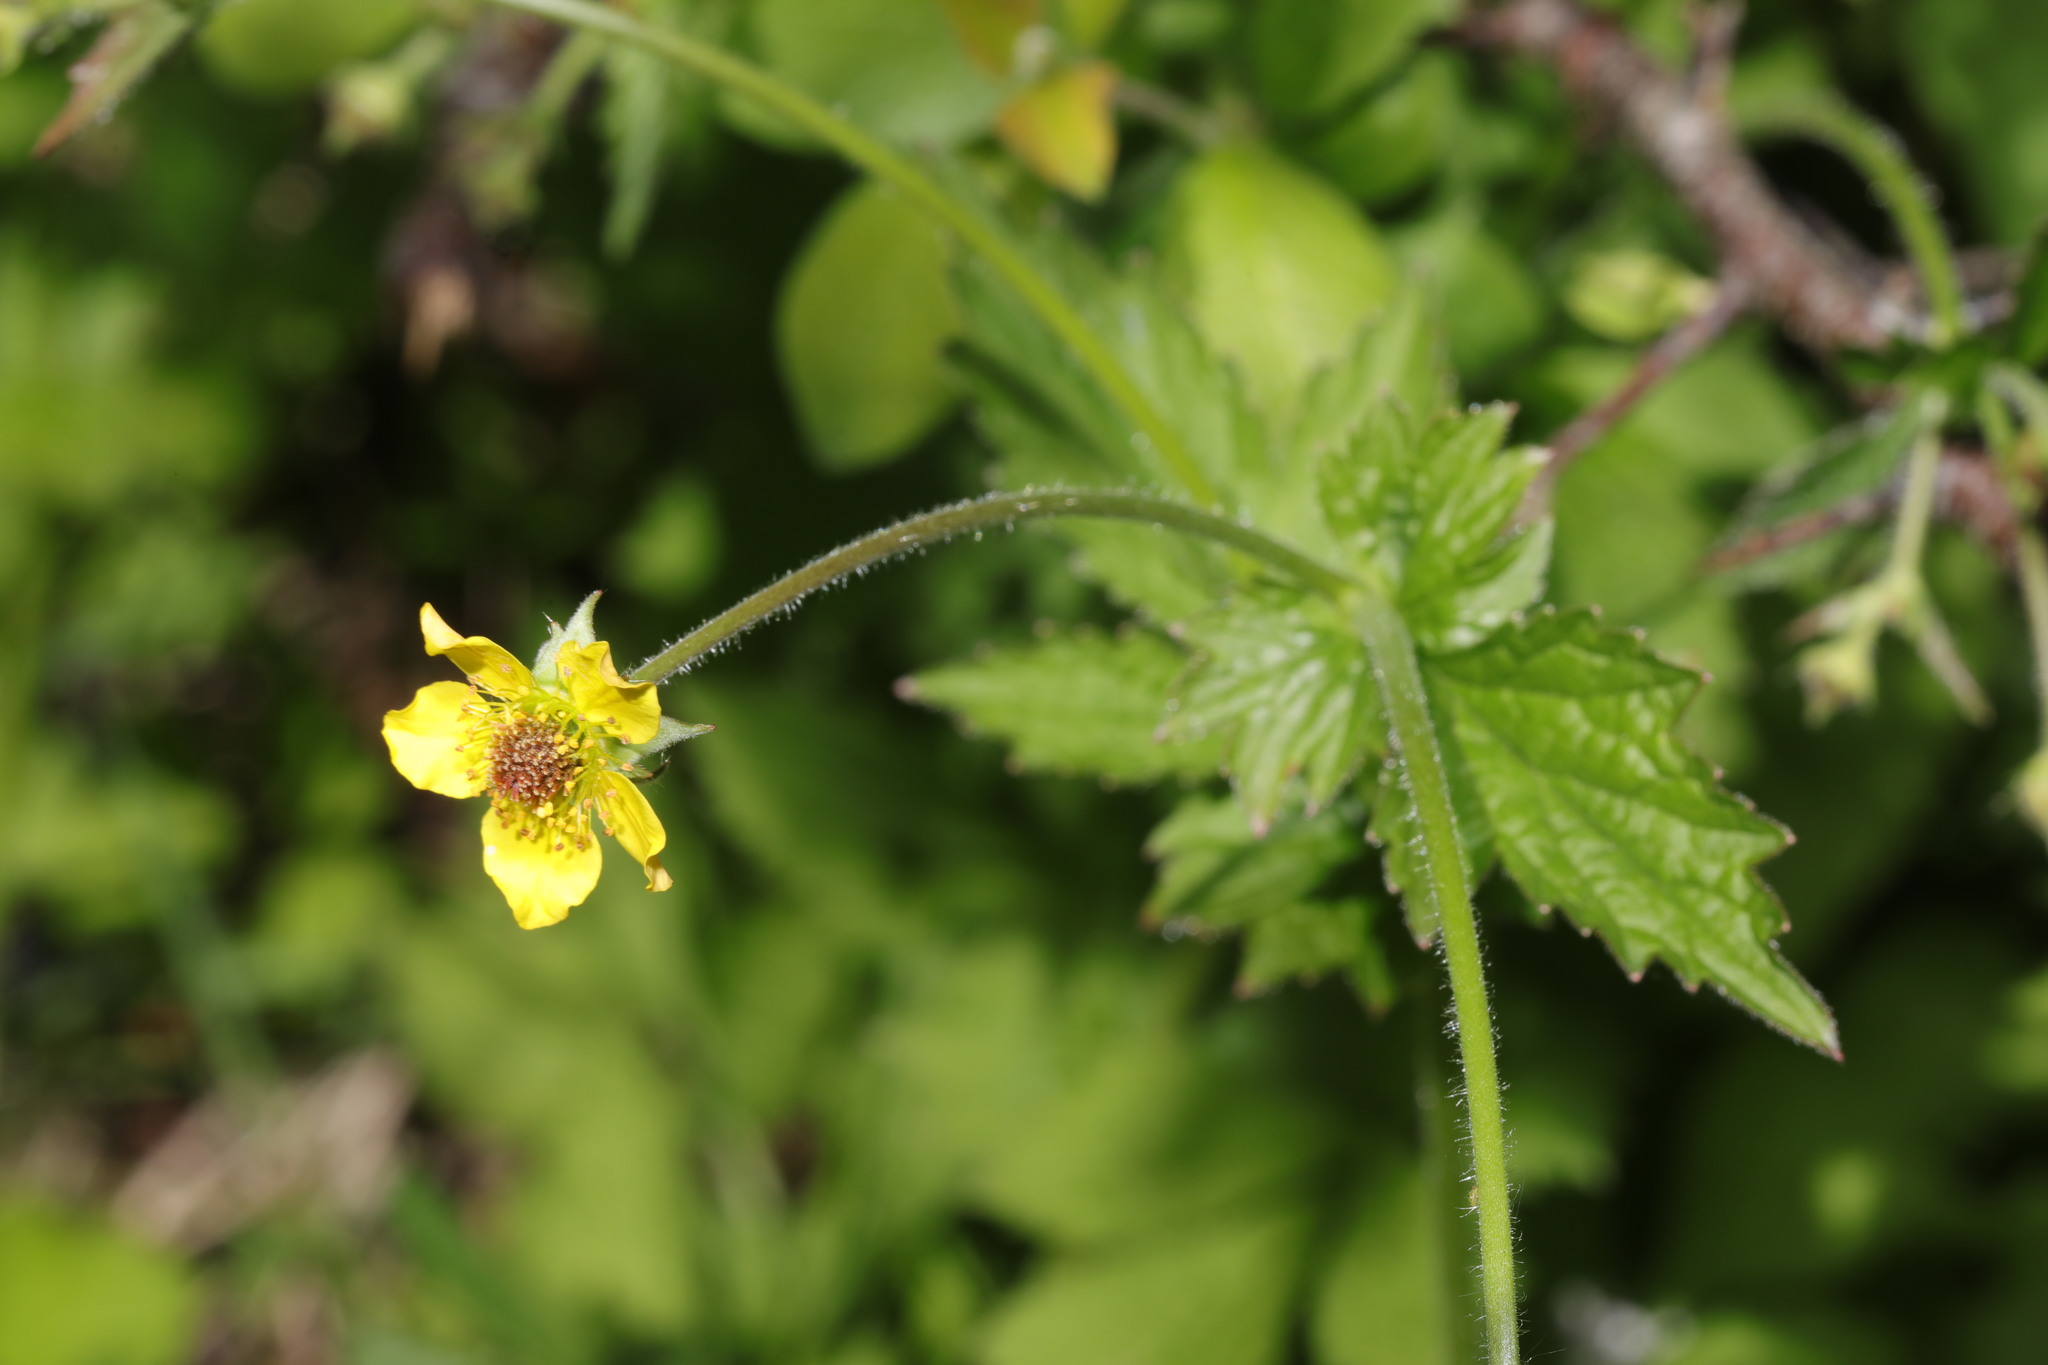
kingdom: Plantae
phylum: Tracheophyta
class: Magnoliopsida
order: Rosales
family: Rosaceae
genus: Geum
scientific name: Geum urbanum
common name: Wood avens
